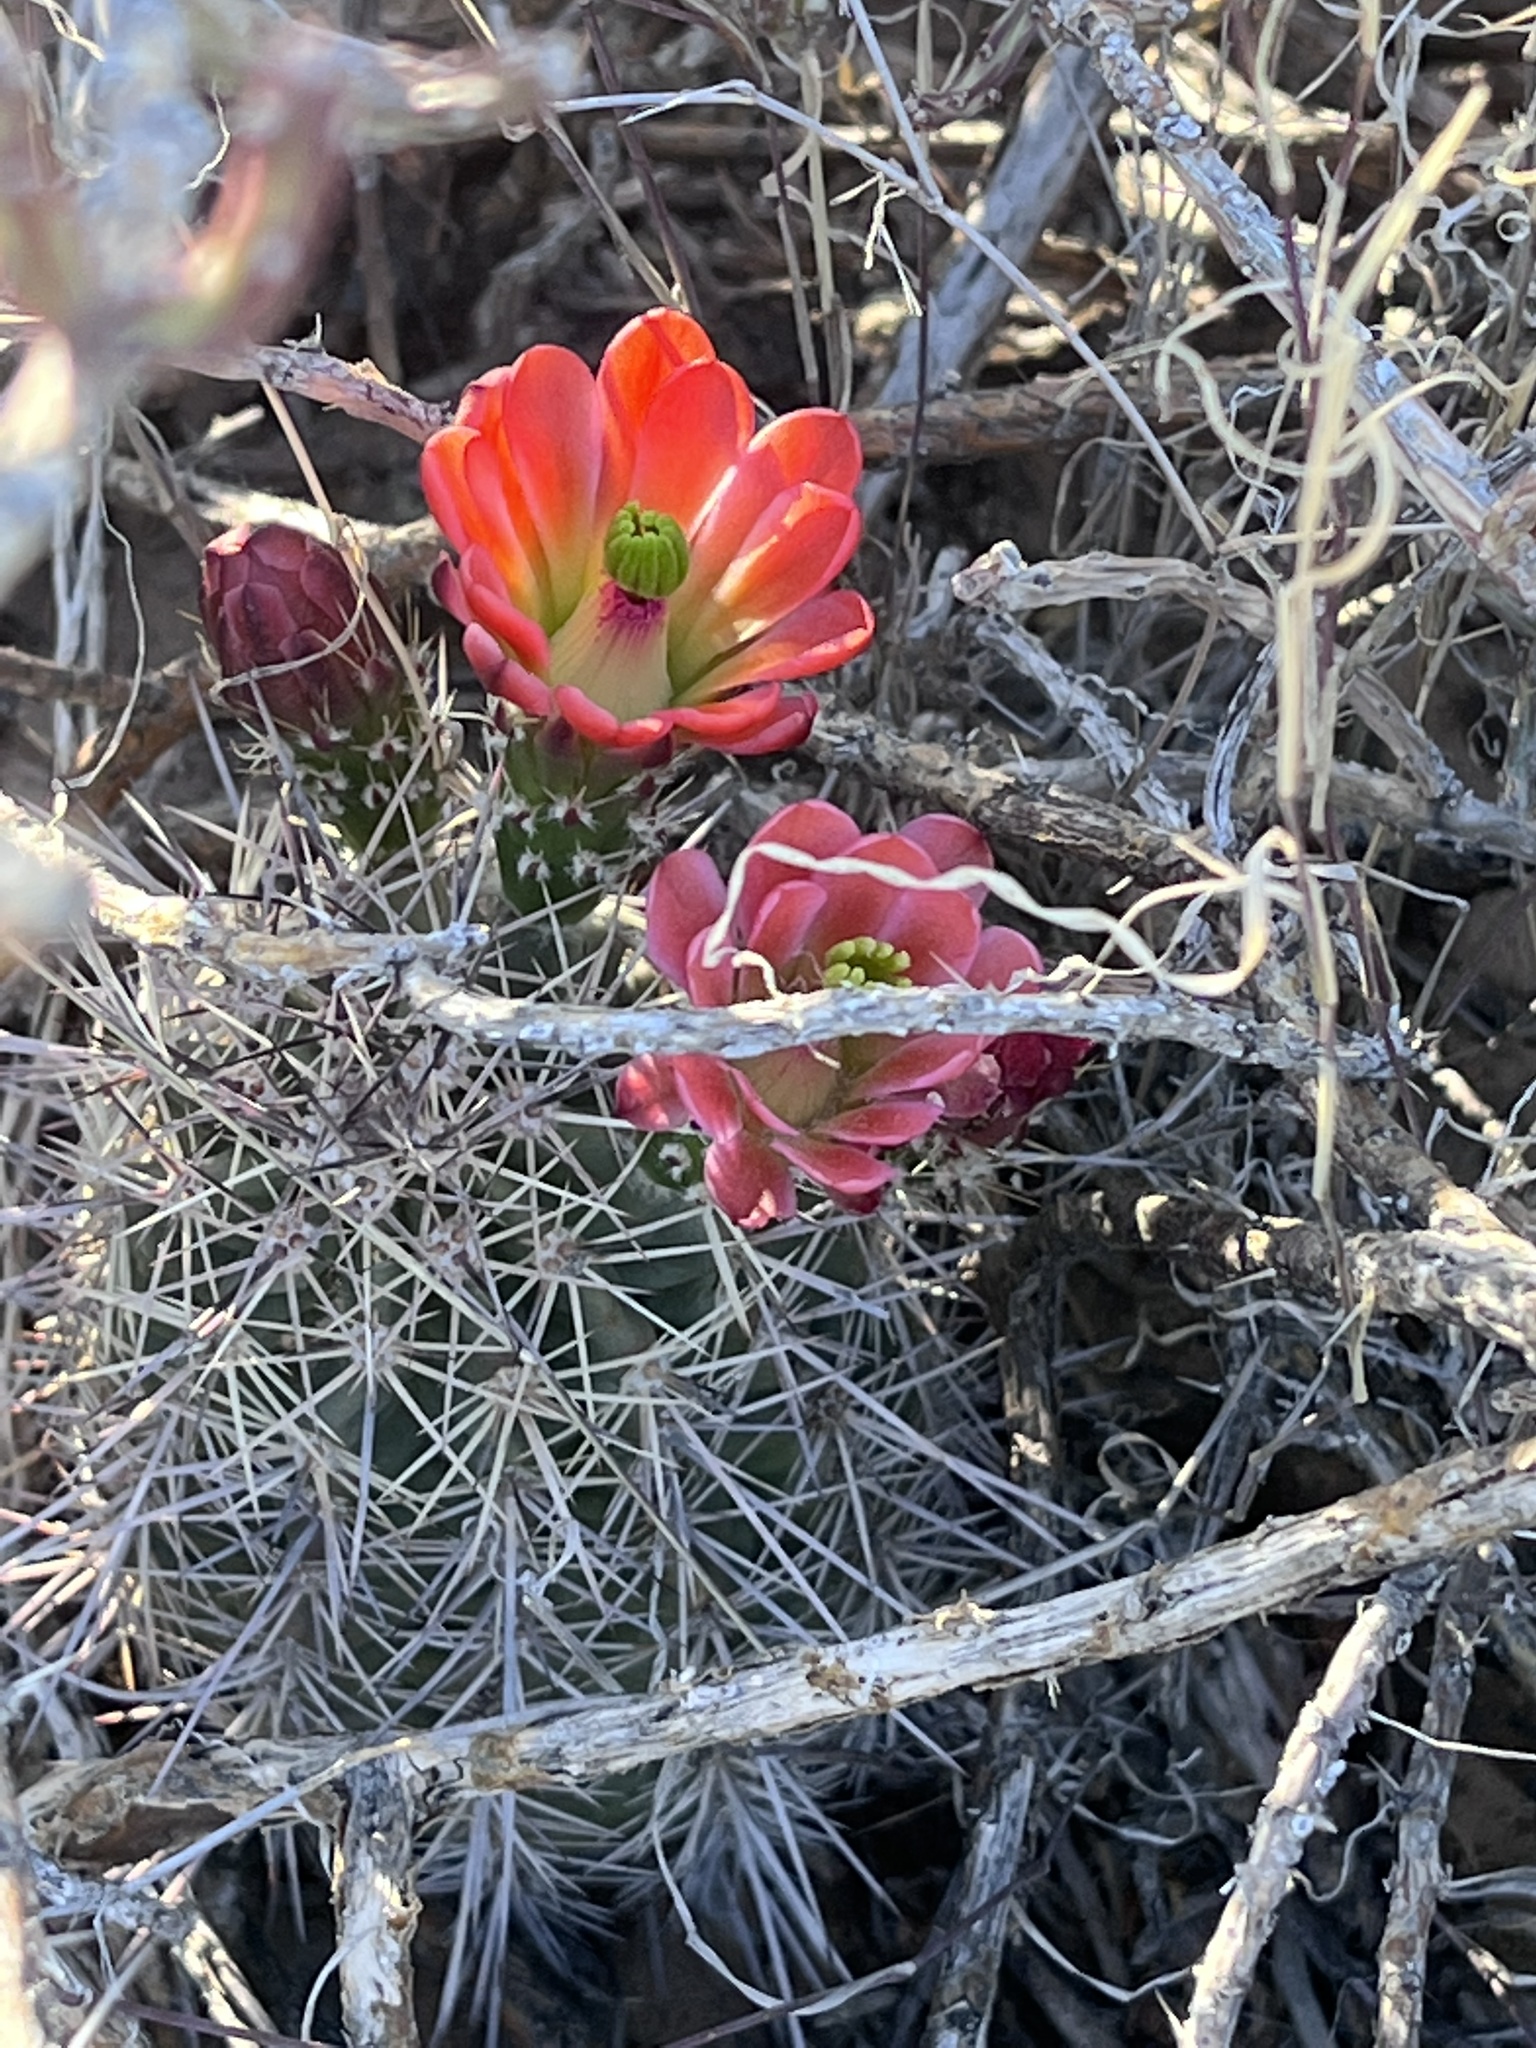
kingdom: Plantae
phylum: Tracheophyta
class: Magnoliopsida
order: Caryophyllales
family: Cactaceae
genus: Echinocereus
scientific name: Echinocereus coccineus
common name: Scarlet hedgehog cactus
